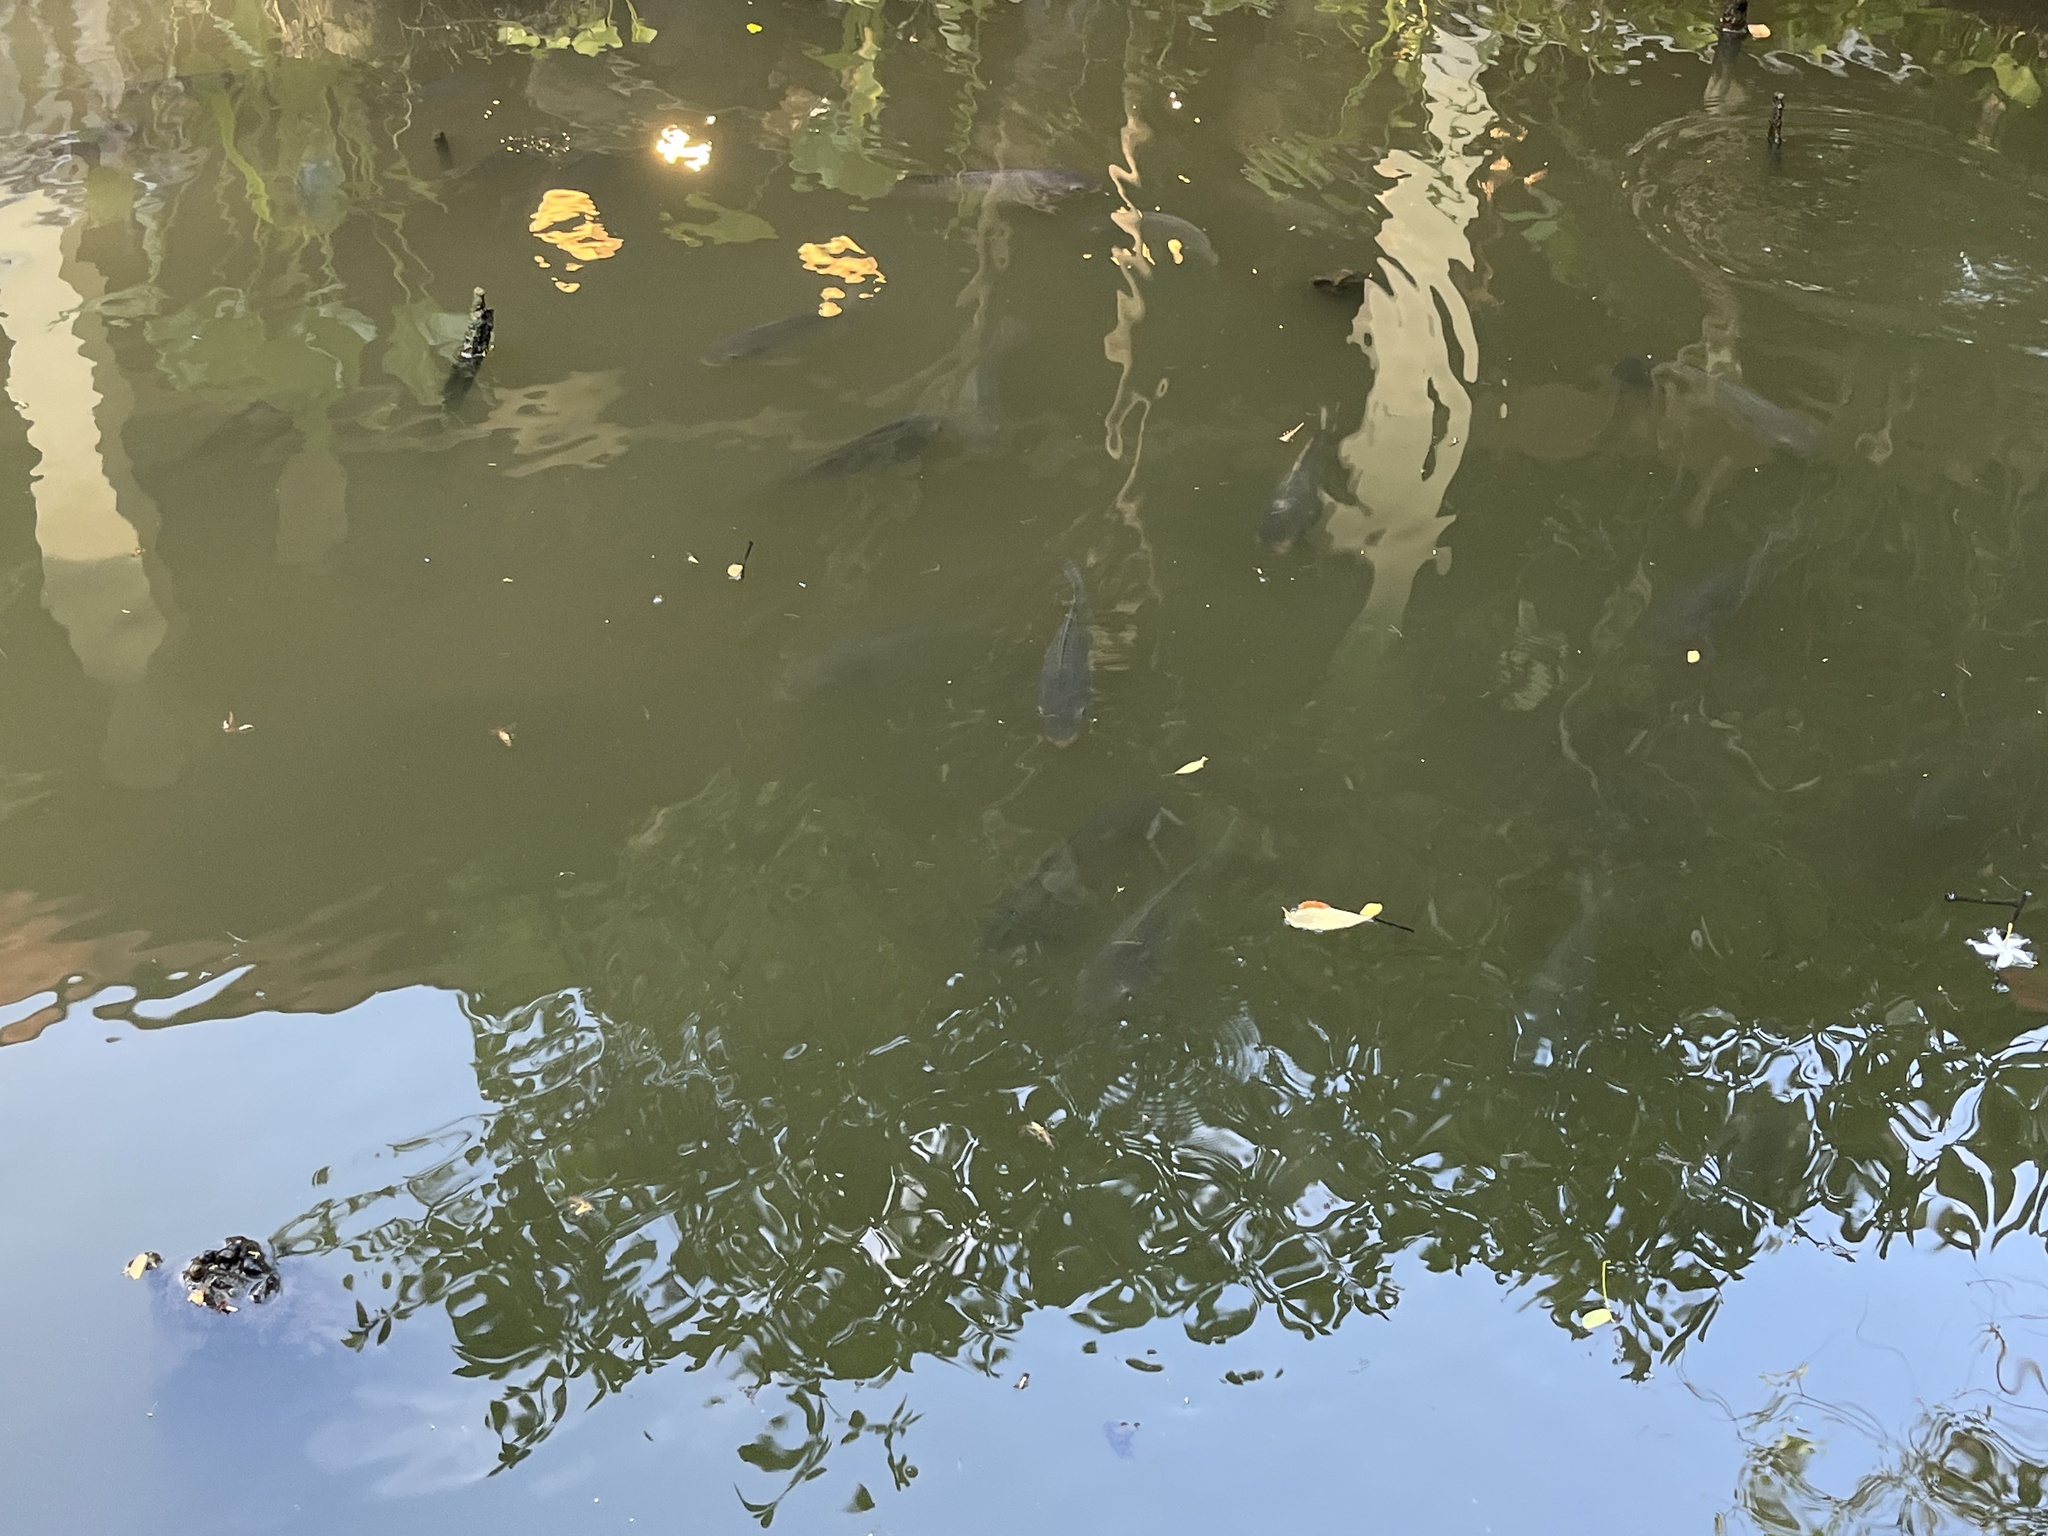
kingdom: Animalia
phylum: Chordata
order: Perciformes
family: Cichlidae
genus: Oreochromis
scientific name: Oreochromis niloticus
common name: Nile tilapia
